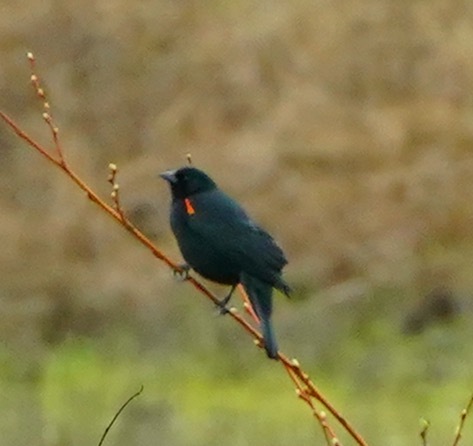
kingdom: Animalia
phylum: Chordata
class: Aves
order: Passeriformes
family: Icteridae
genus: Agelaius
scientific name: Agelaius phoeniceus
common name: Red-winged blackbird
